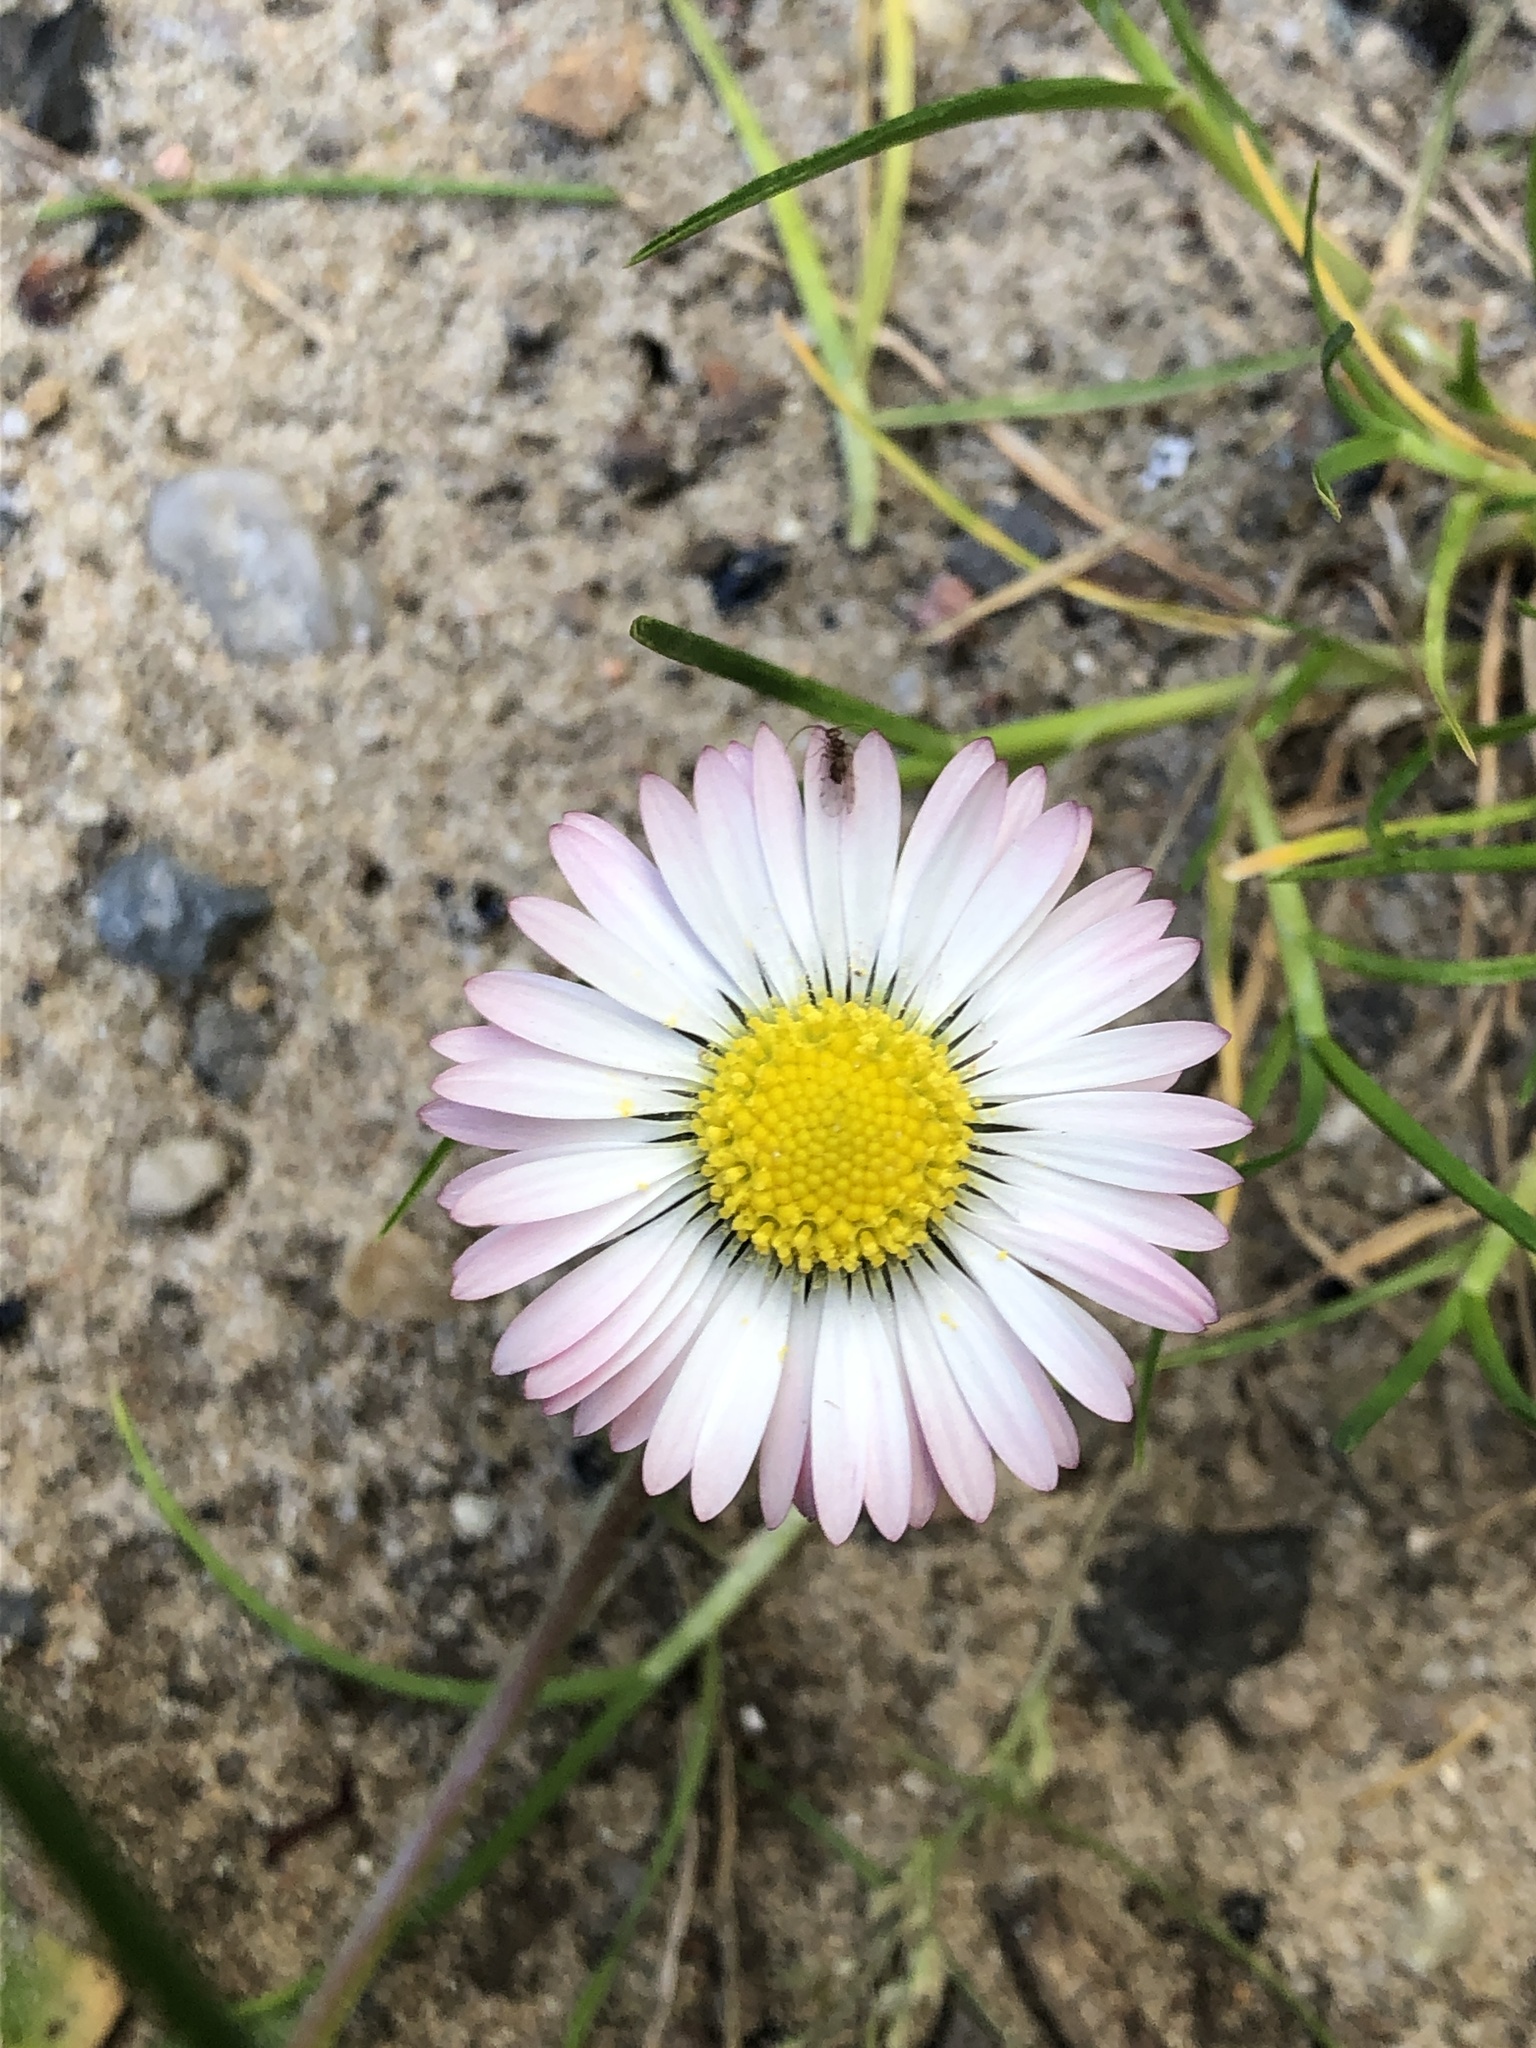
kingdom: Plantae
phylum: Tracheophyta
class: Magnoliopsida
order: Asterales
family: Asteraceae
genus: Bellis
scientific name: Bellis perennis
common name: Lawndaisy
